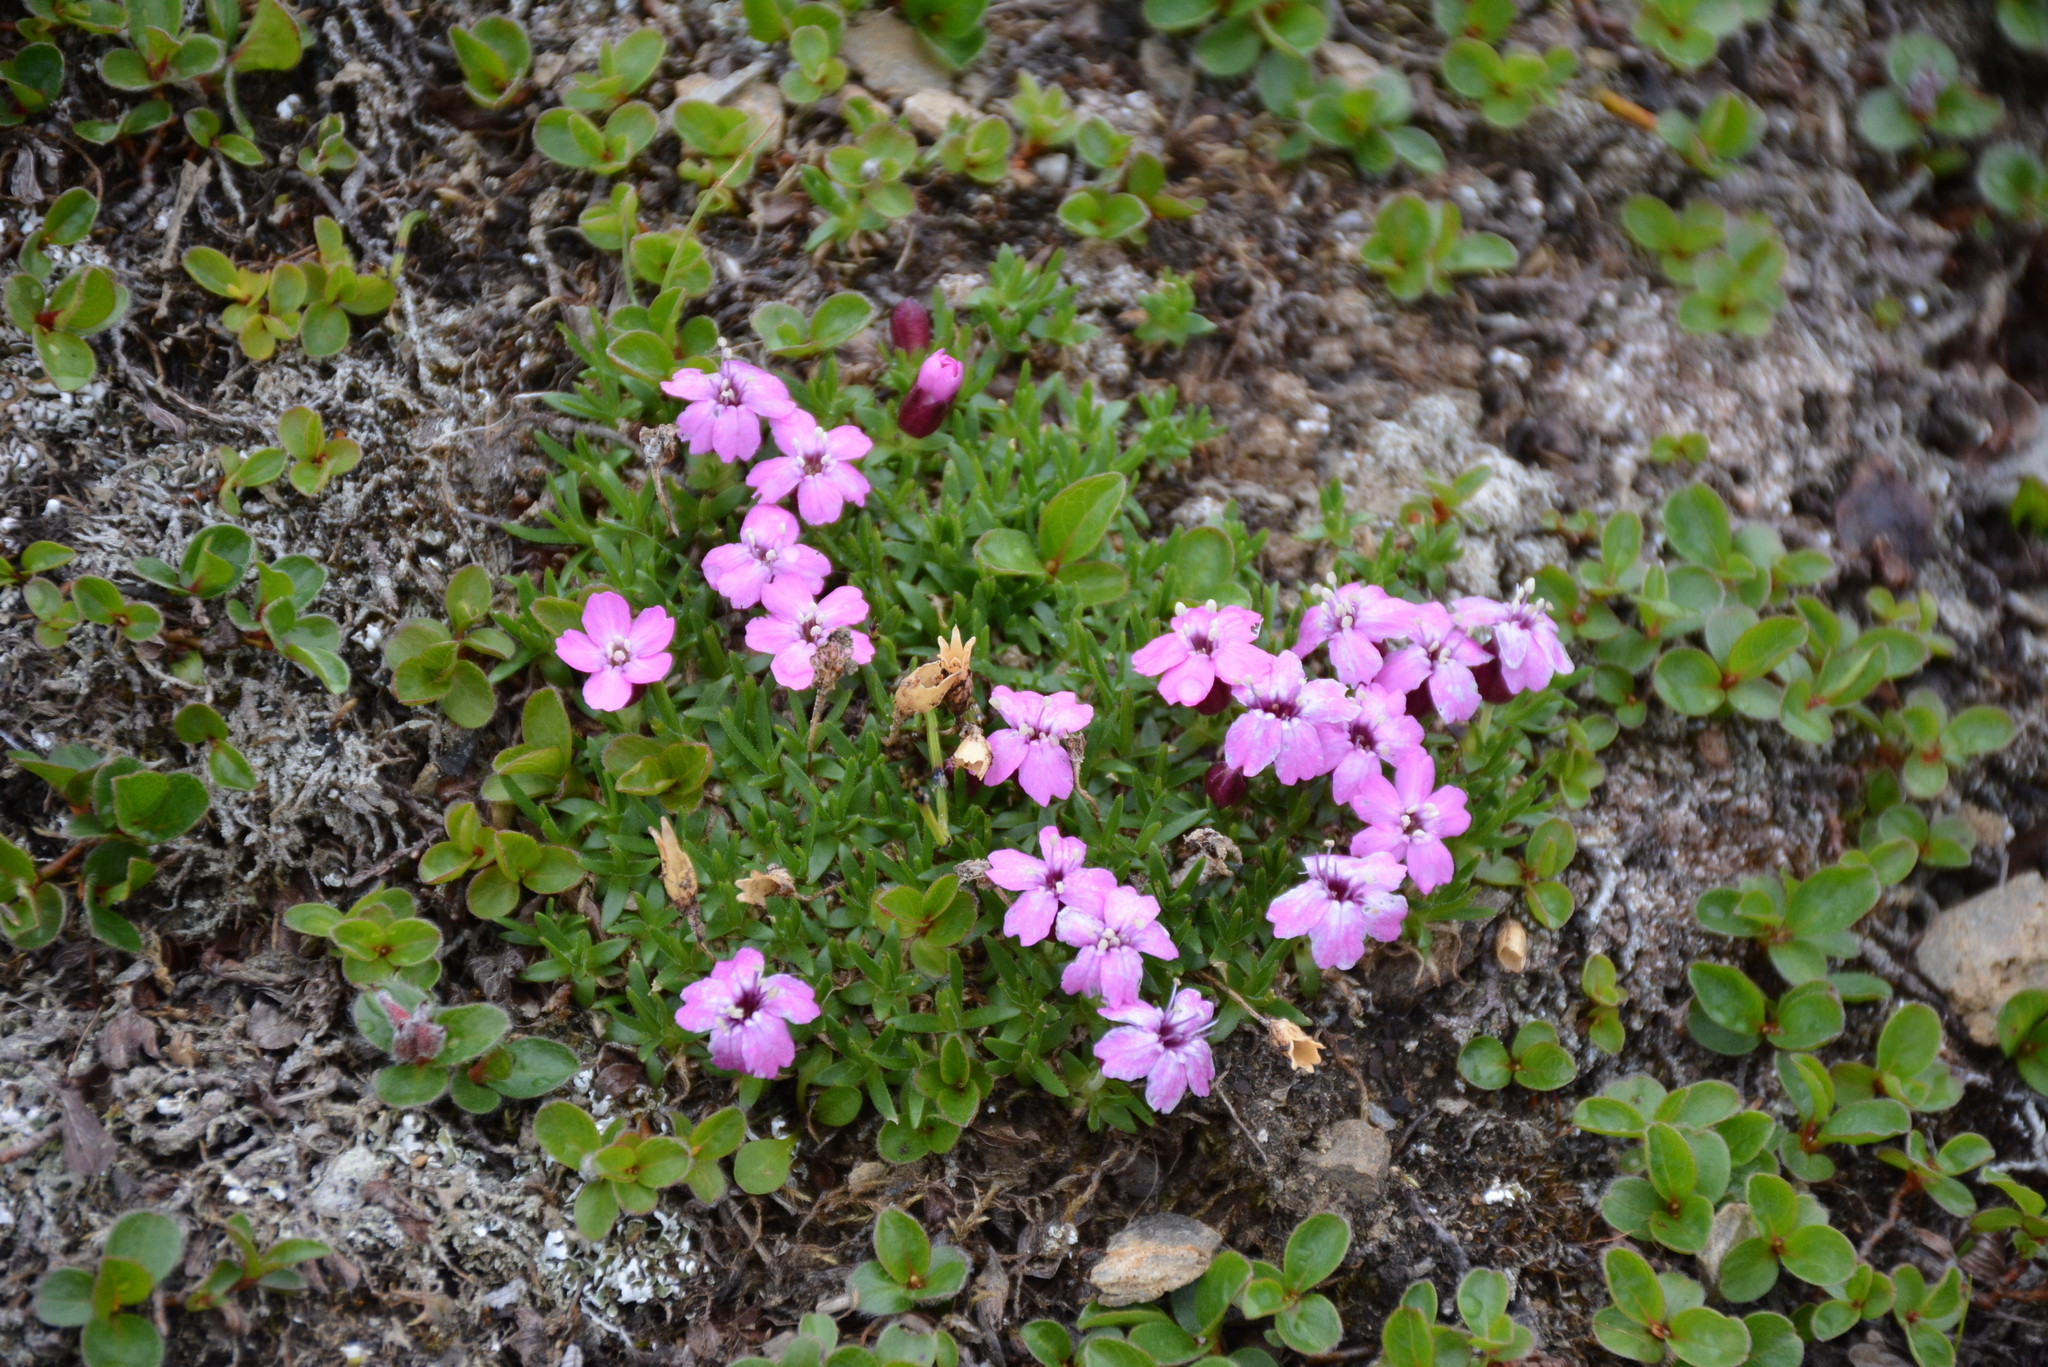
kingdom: Plantae
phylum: Tracheophyta
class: Magnoliopsida
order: Caryophyllales
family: Caryophyllaceae
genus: Silene
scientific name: Silene acaulis
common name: Moss campion
